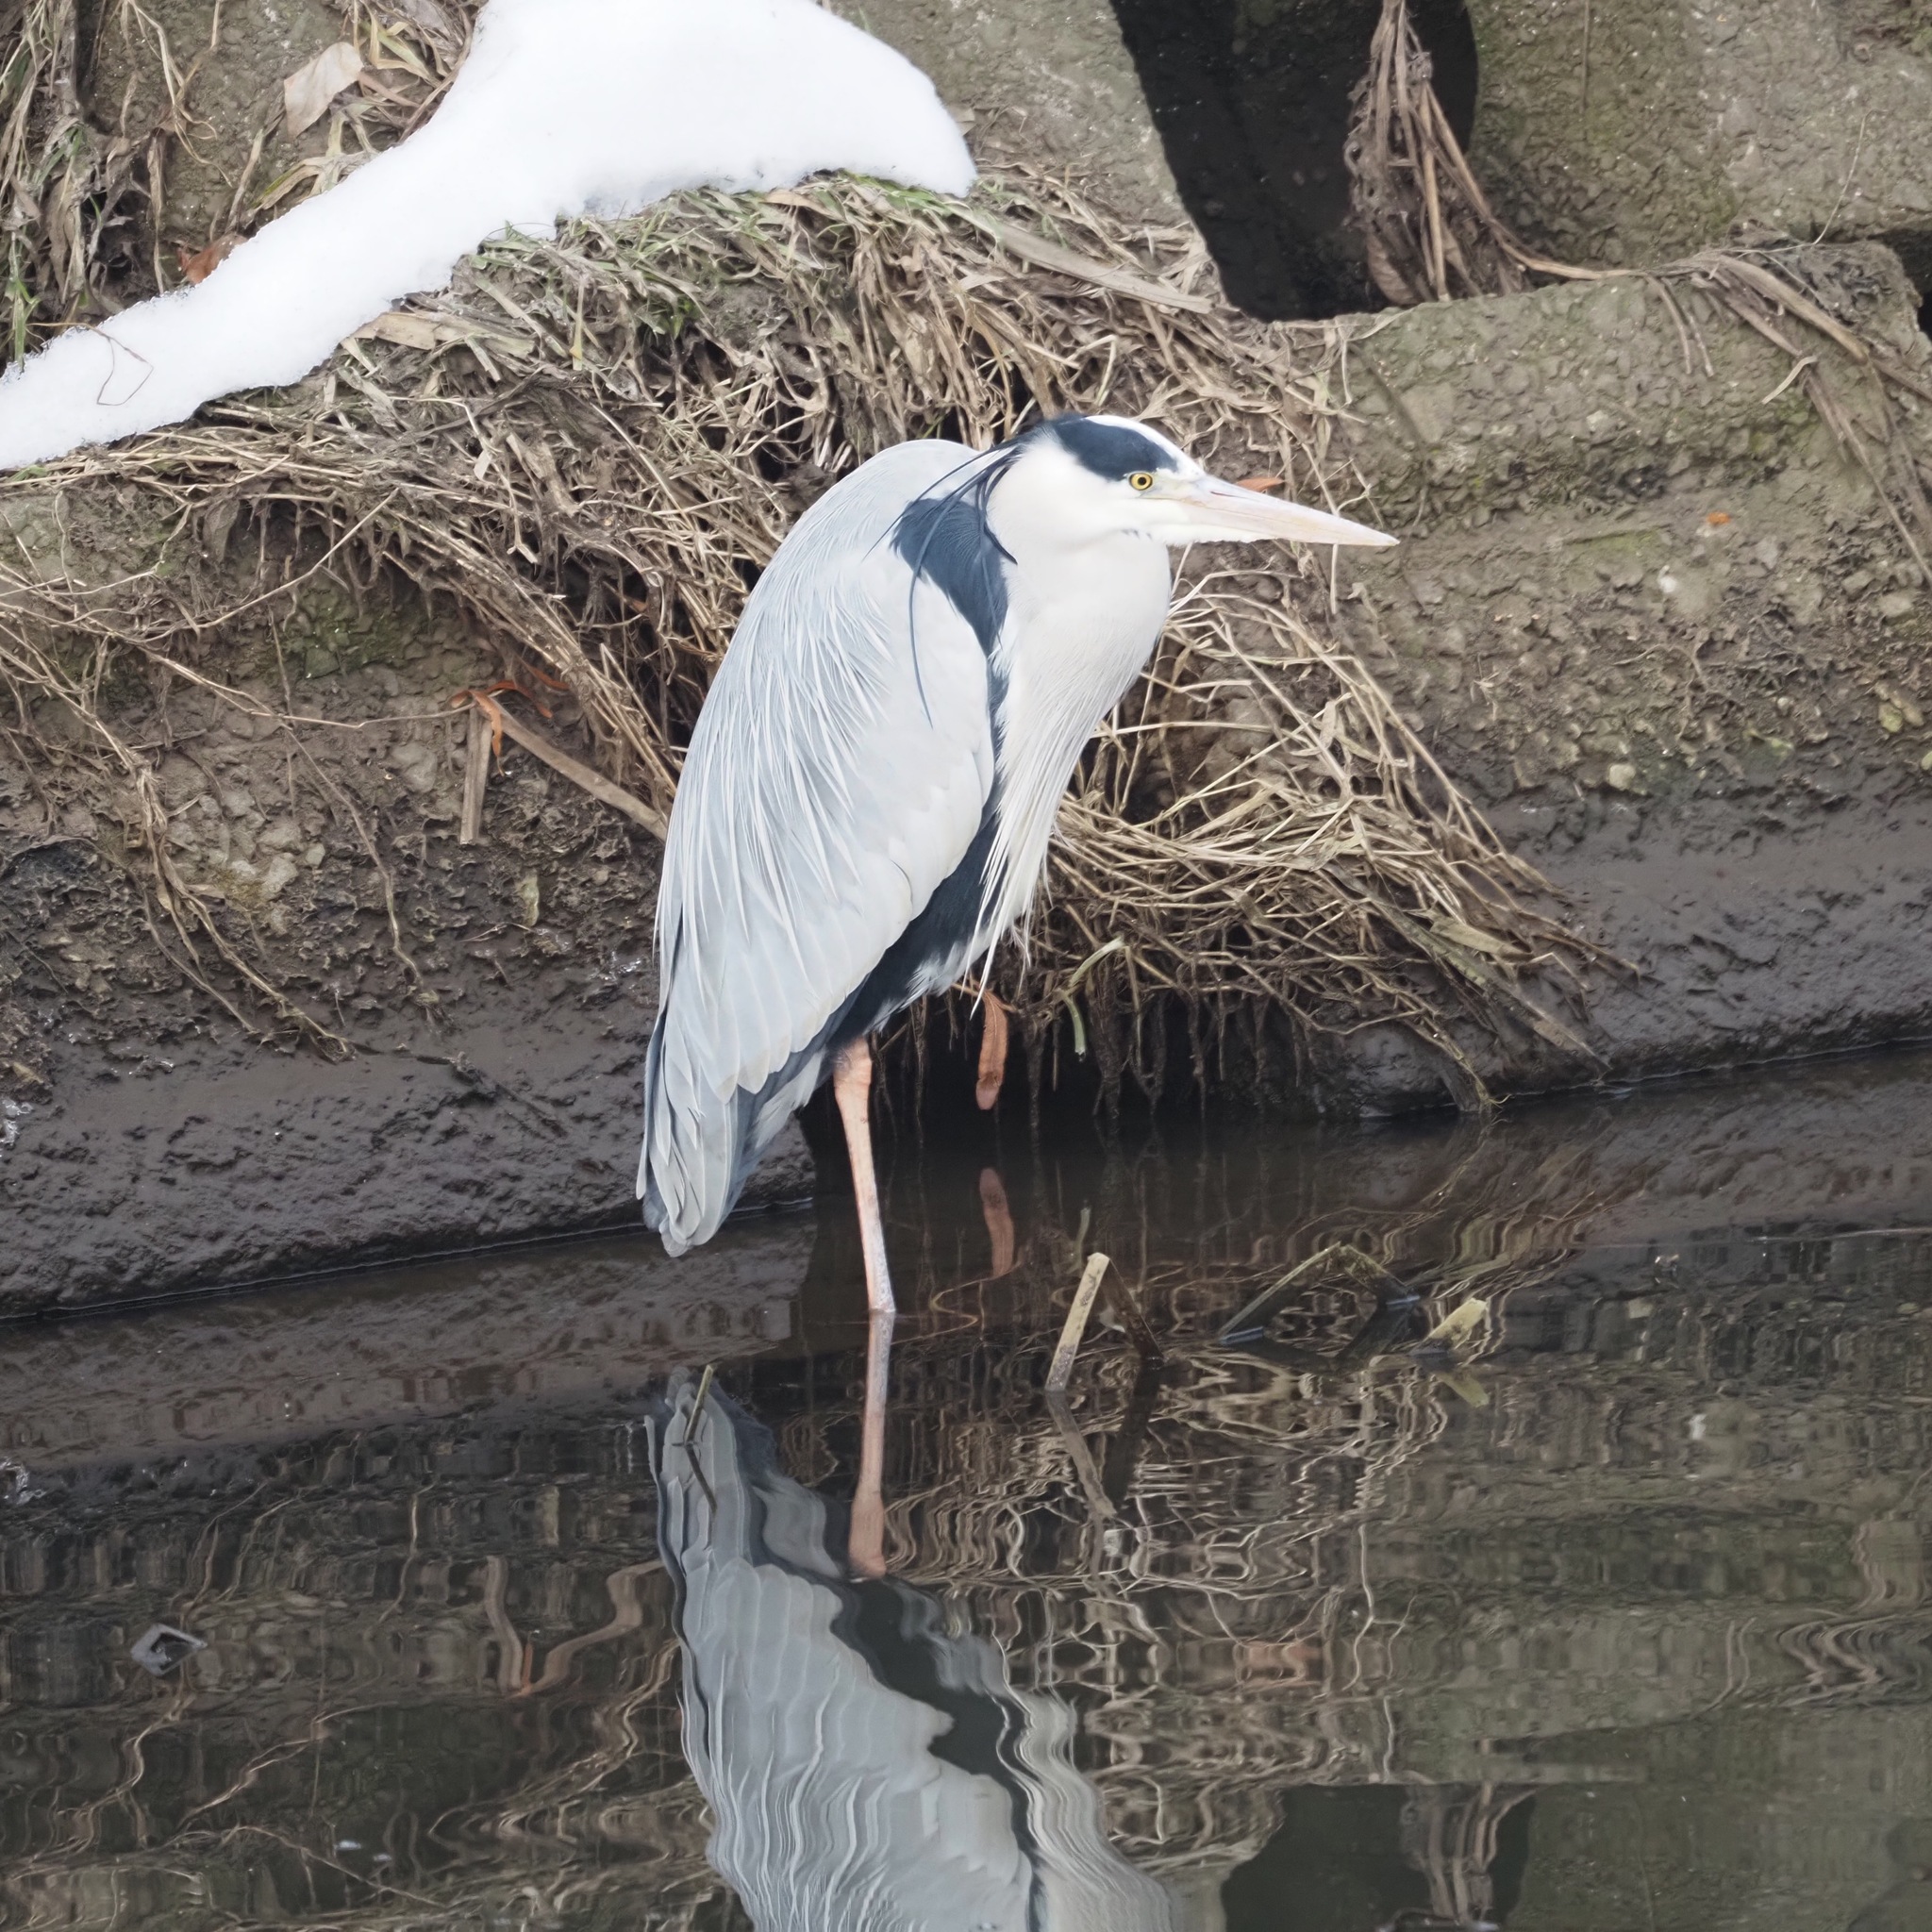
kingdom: Animalia
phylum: Chordata
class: Aves
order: Pelecaniformes
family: Ardeidae
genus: Ardea
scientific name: Ardea cinerea
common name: Grey heron
